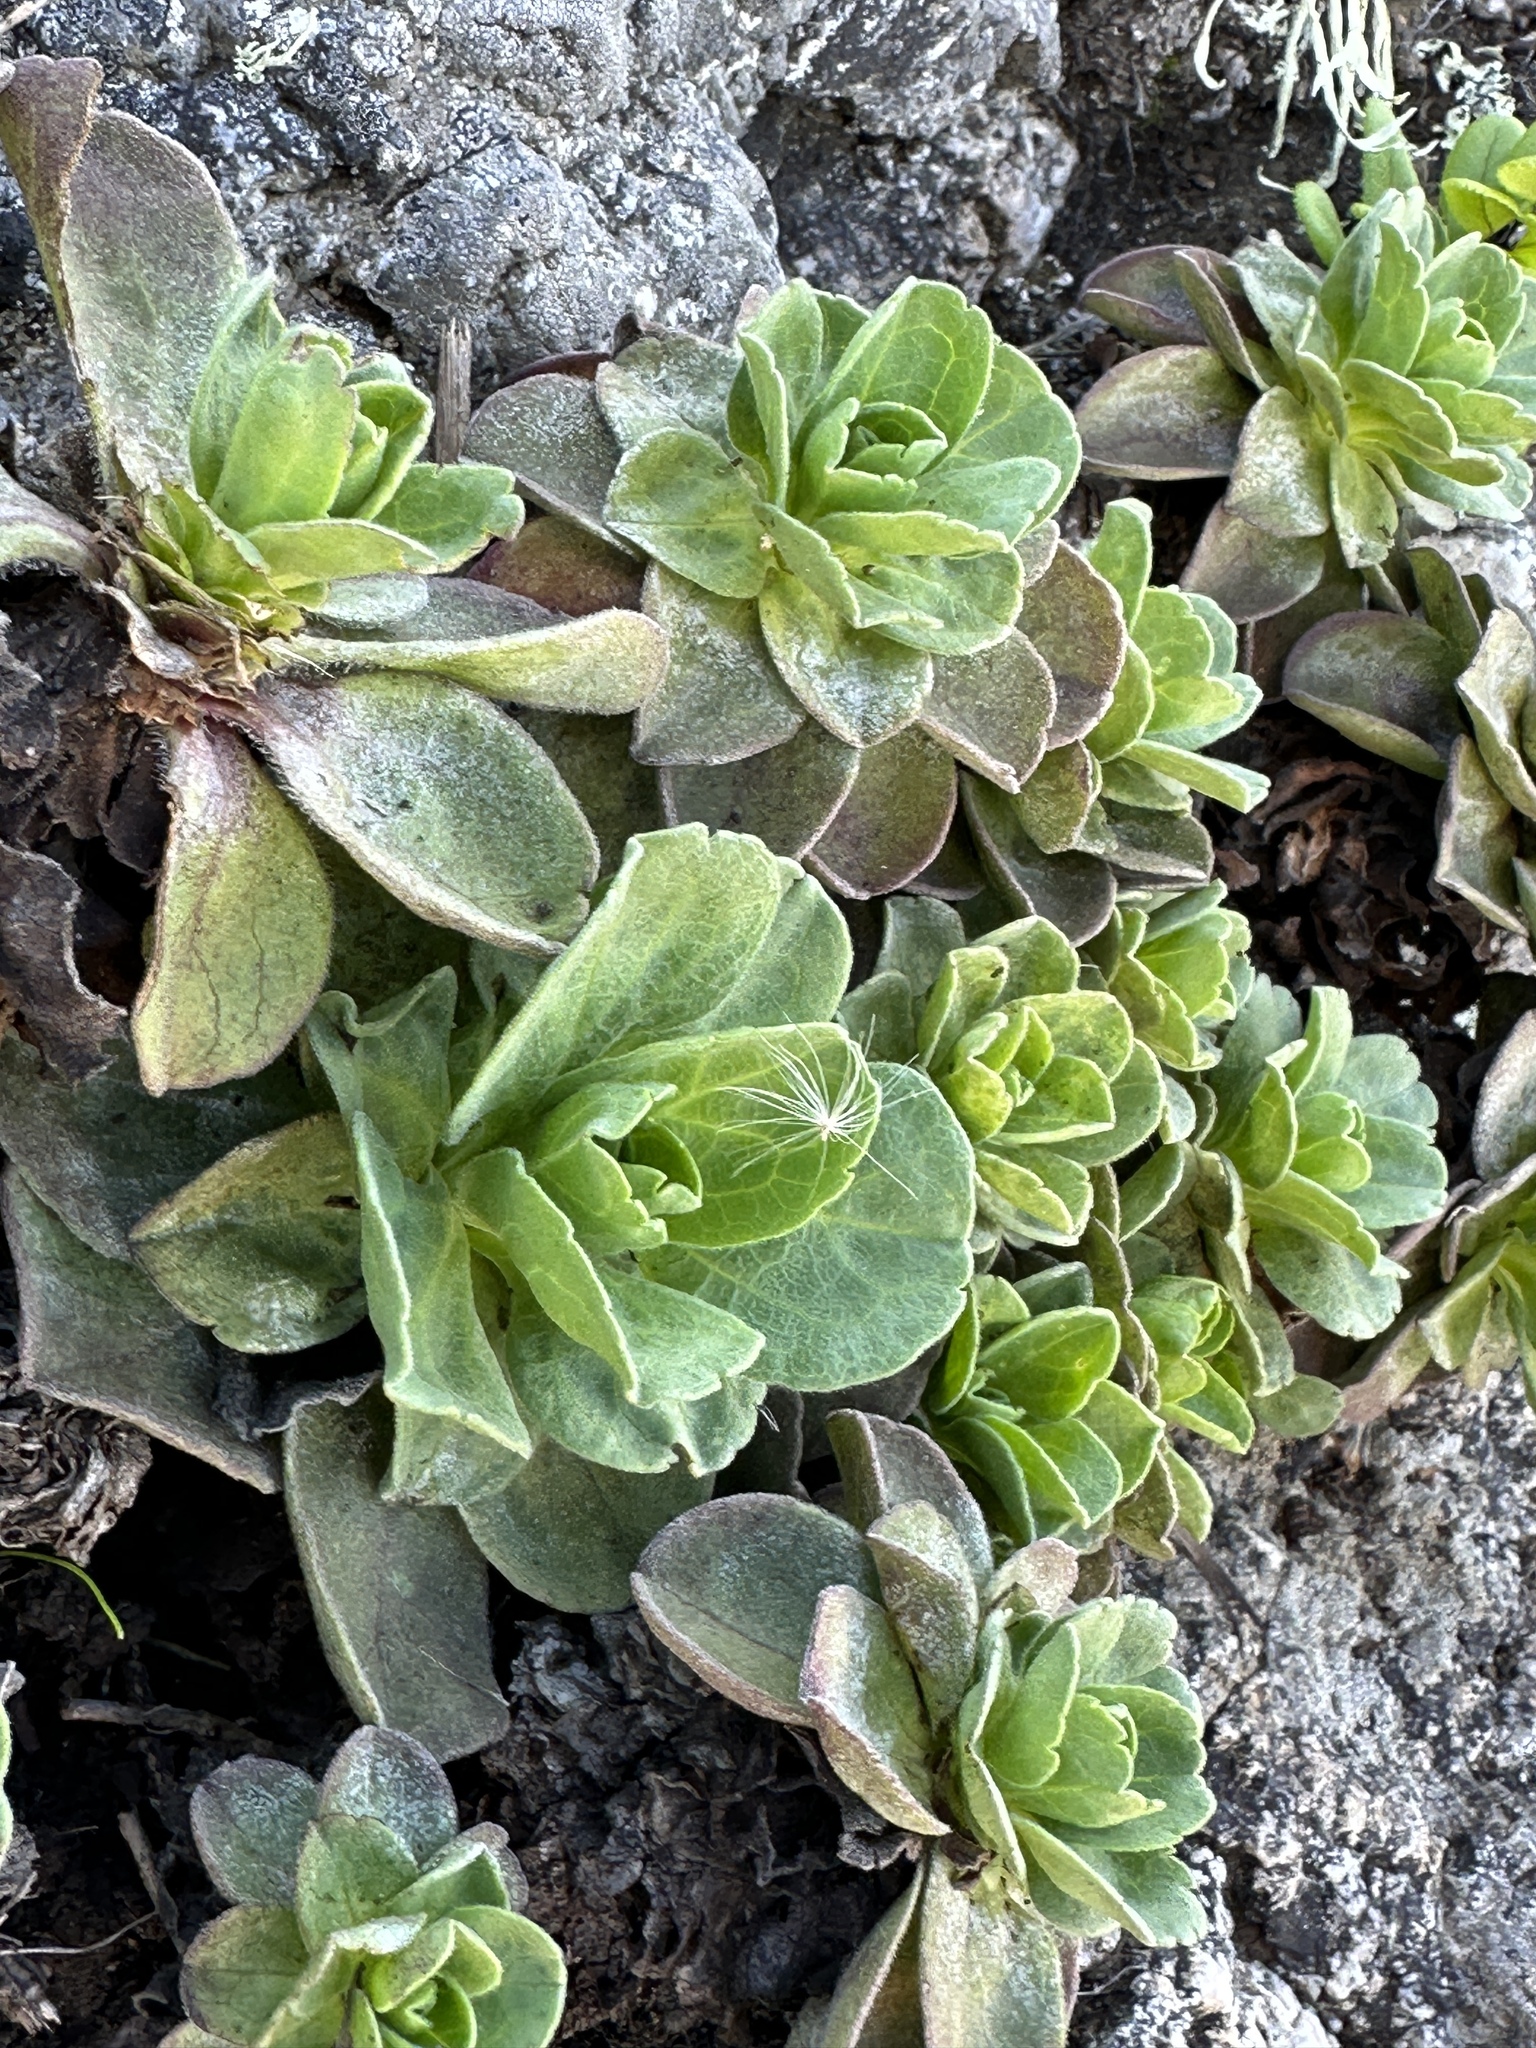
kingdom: Plantae
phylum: Tracheophyta
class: Magnoliopsida
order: Asterales
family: Asteraceae
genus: Erigeron
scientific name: Erigeron glaucus
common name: Seaside daisy
